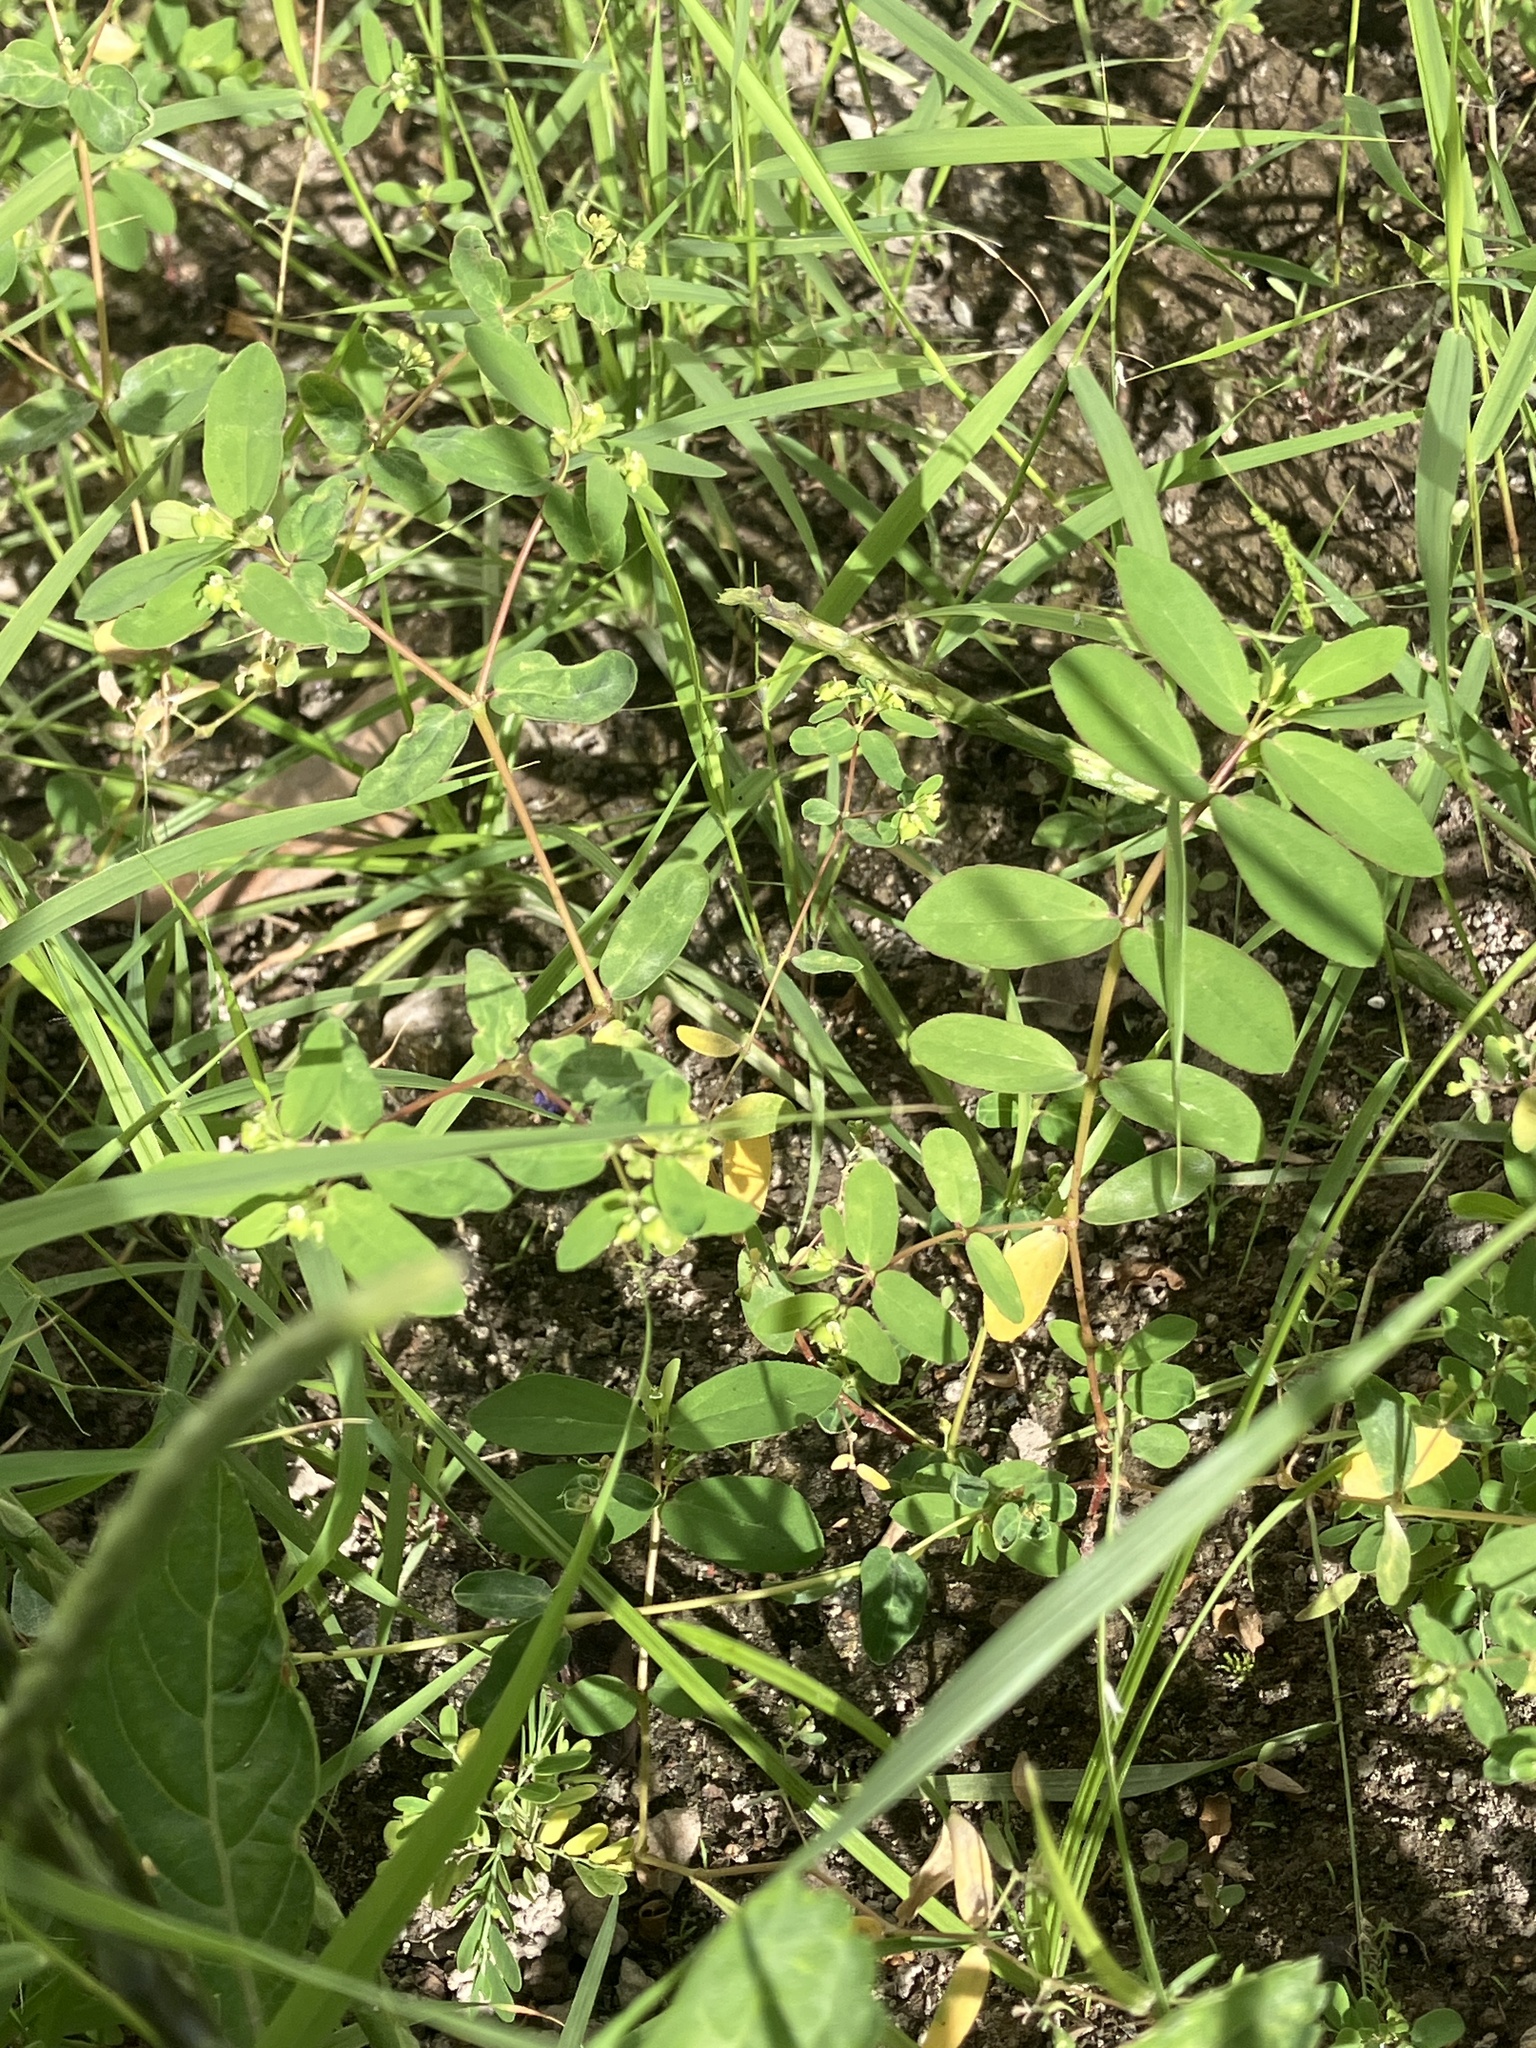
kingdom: Plantae
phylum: Tracheophyta
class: Magnoliopsida
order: Malpighiales
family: Euphorbiaceae
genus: Euphorbia
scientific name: Euphorbia hyssopifolia
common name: Hyssopleaf sandmat
